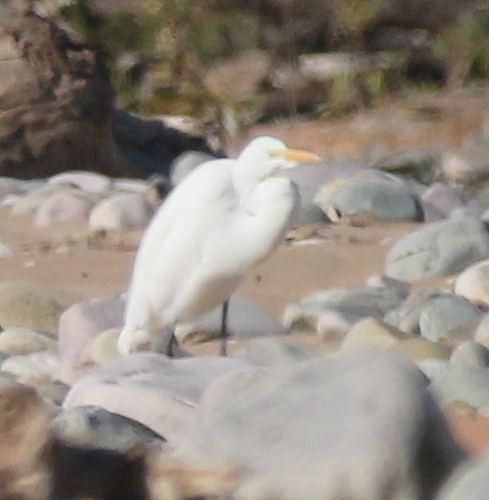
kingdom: Animalia
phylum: Chordata
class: Aves
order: Pelecaniformes
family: Ardeidae
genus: Ardea
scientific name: Ardea alba
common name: Great egret
